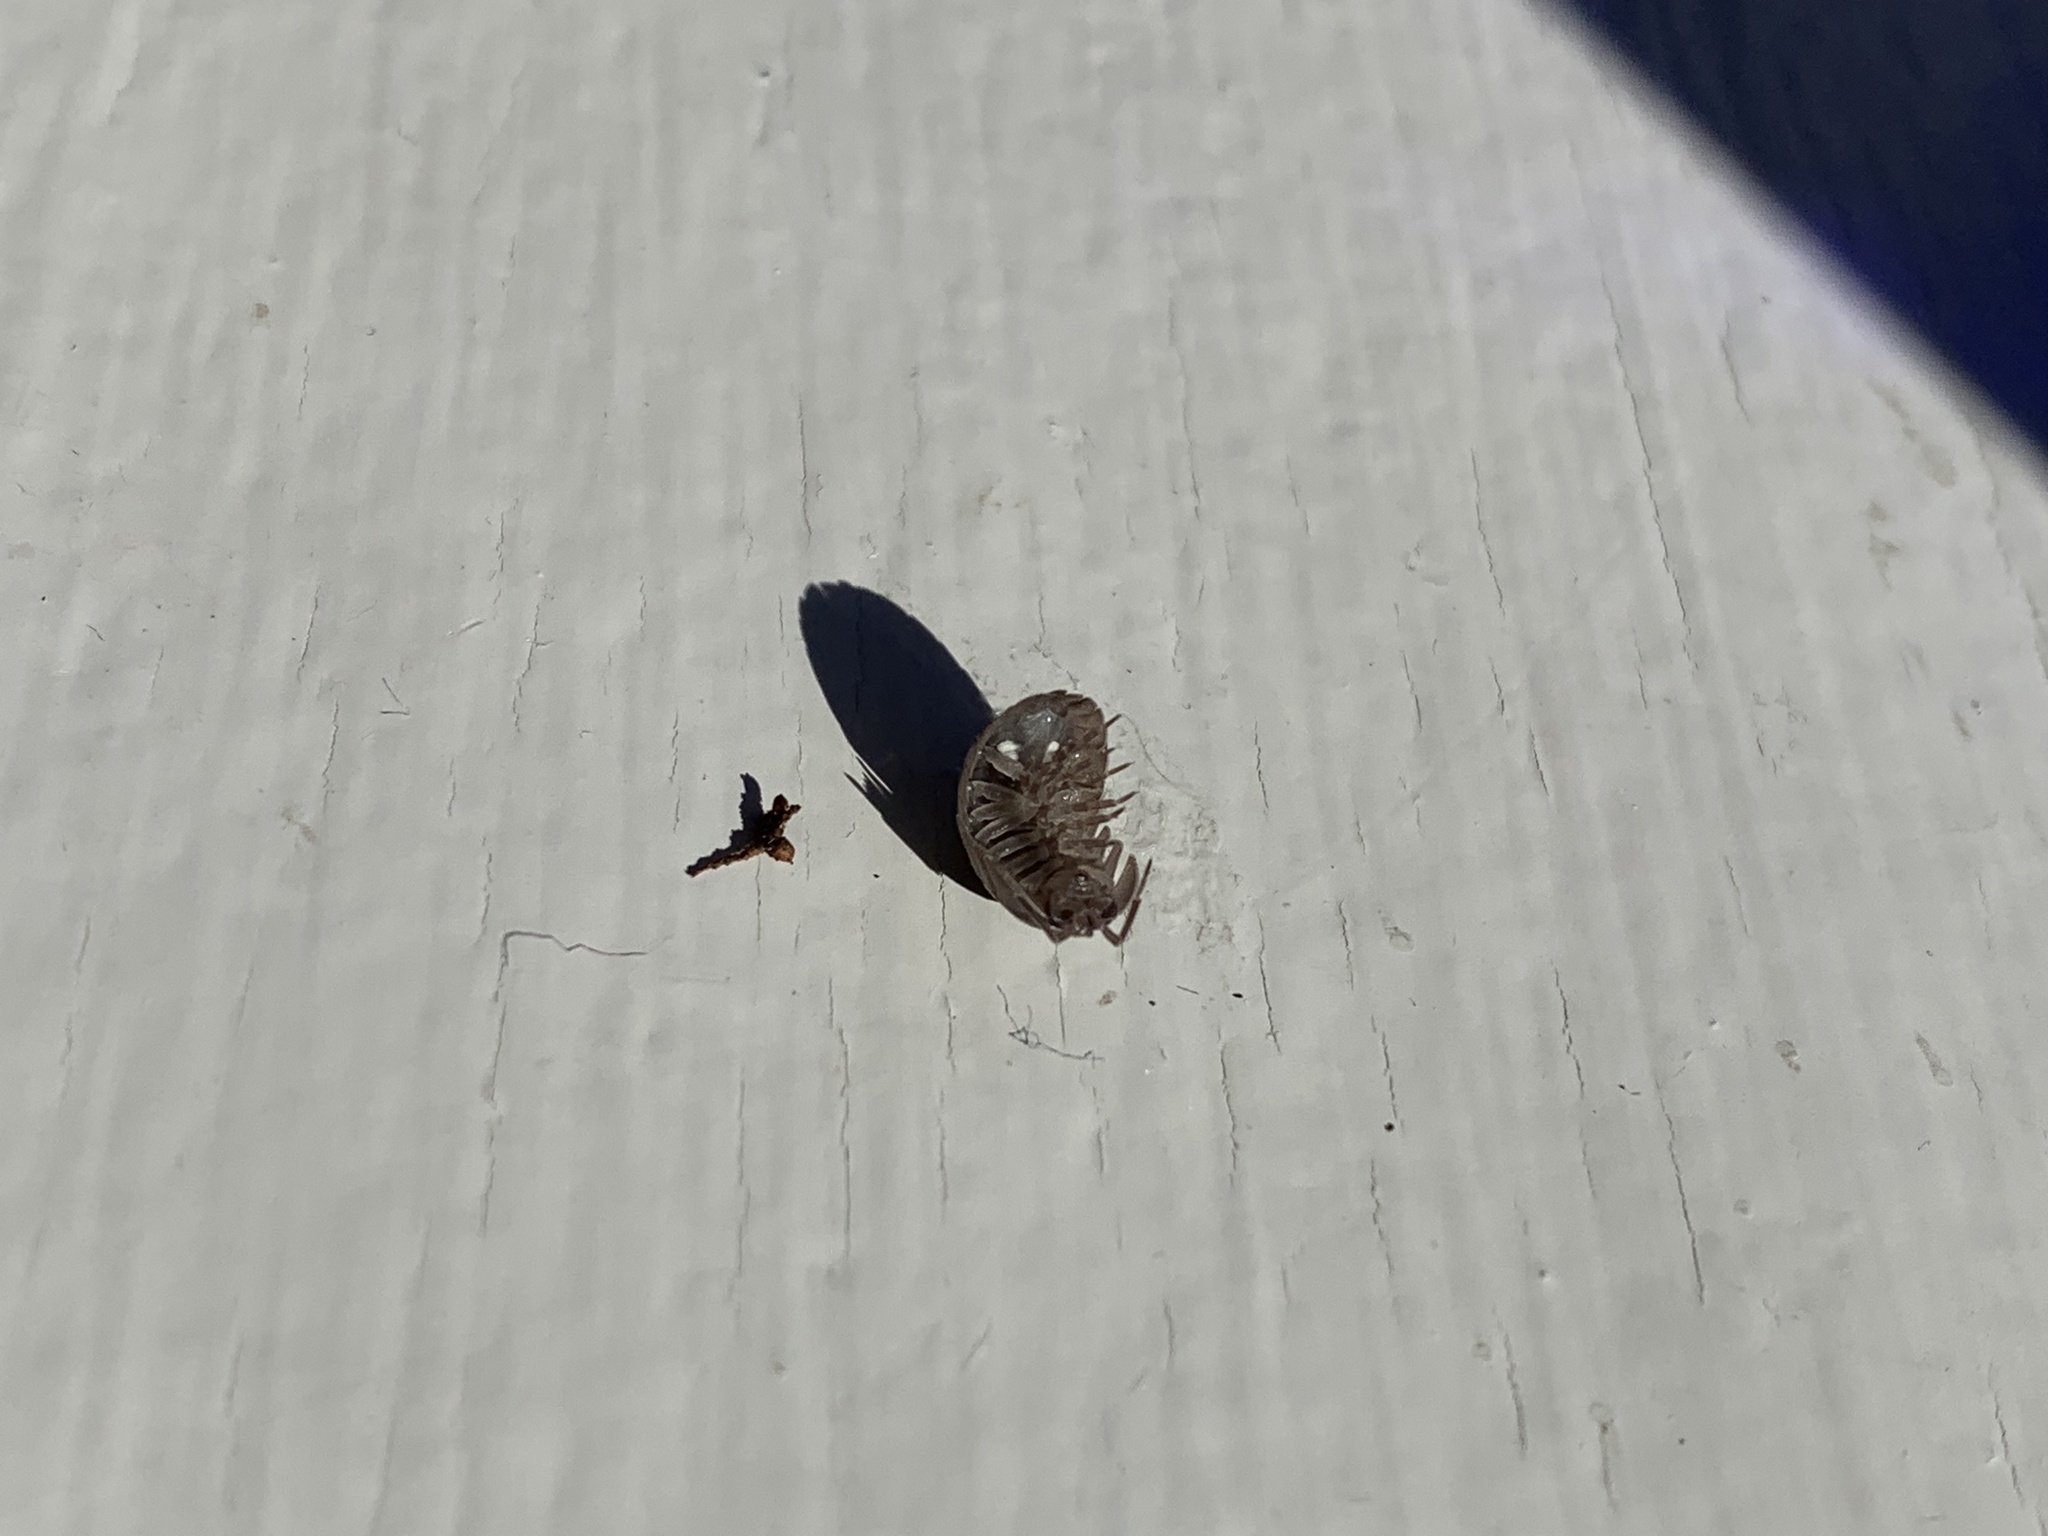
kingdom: Animalia
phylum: Arthropoda
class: Malacostraca
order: Isopoda
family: Armadillidiidae
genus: Armadillidium
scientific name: Armadillidium nasatum
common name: Isopod
